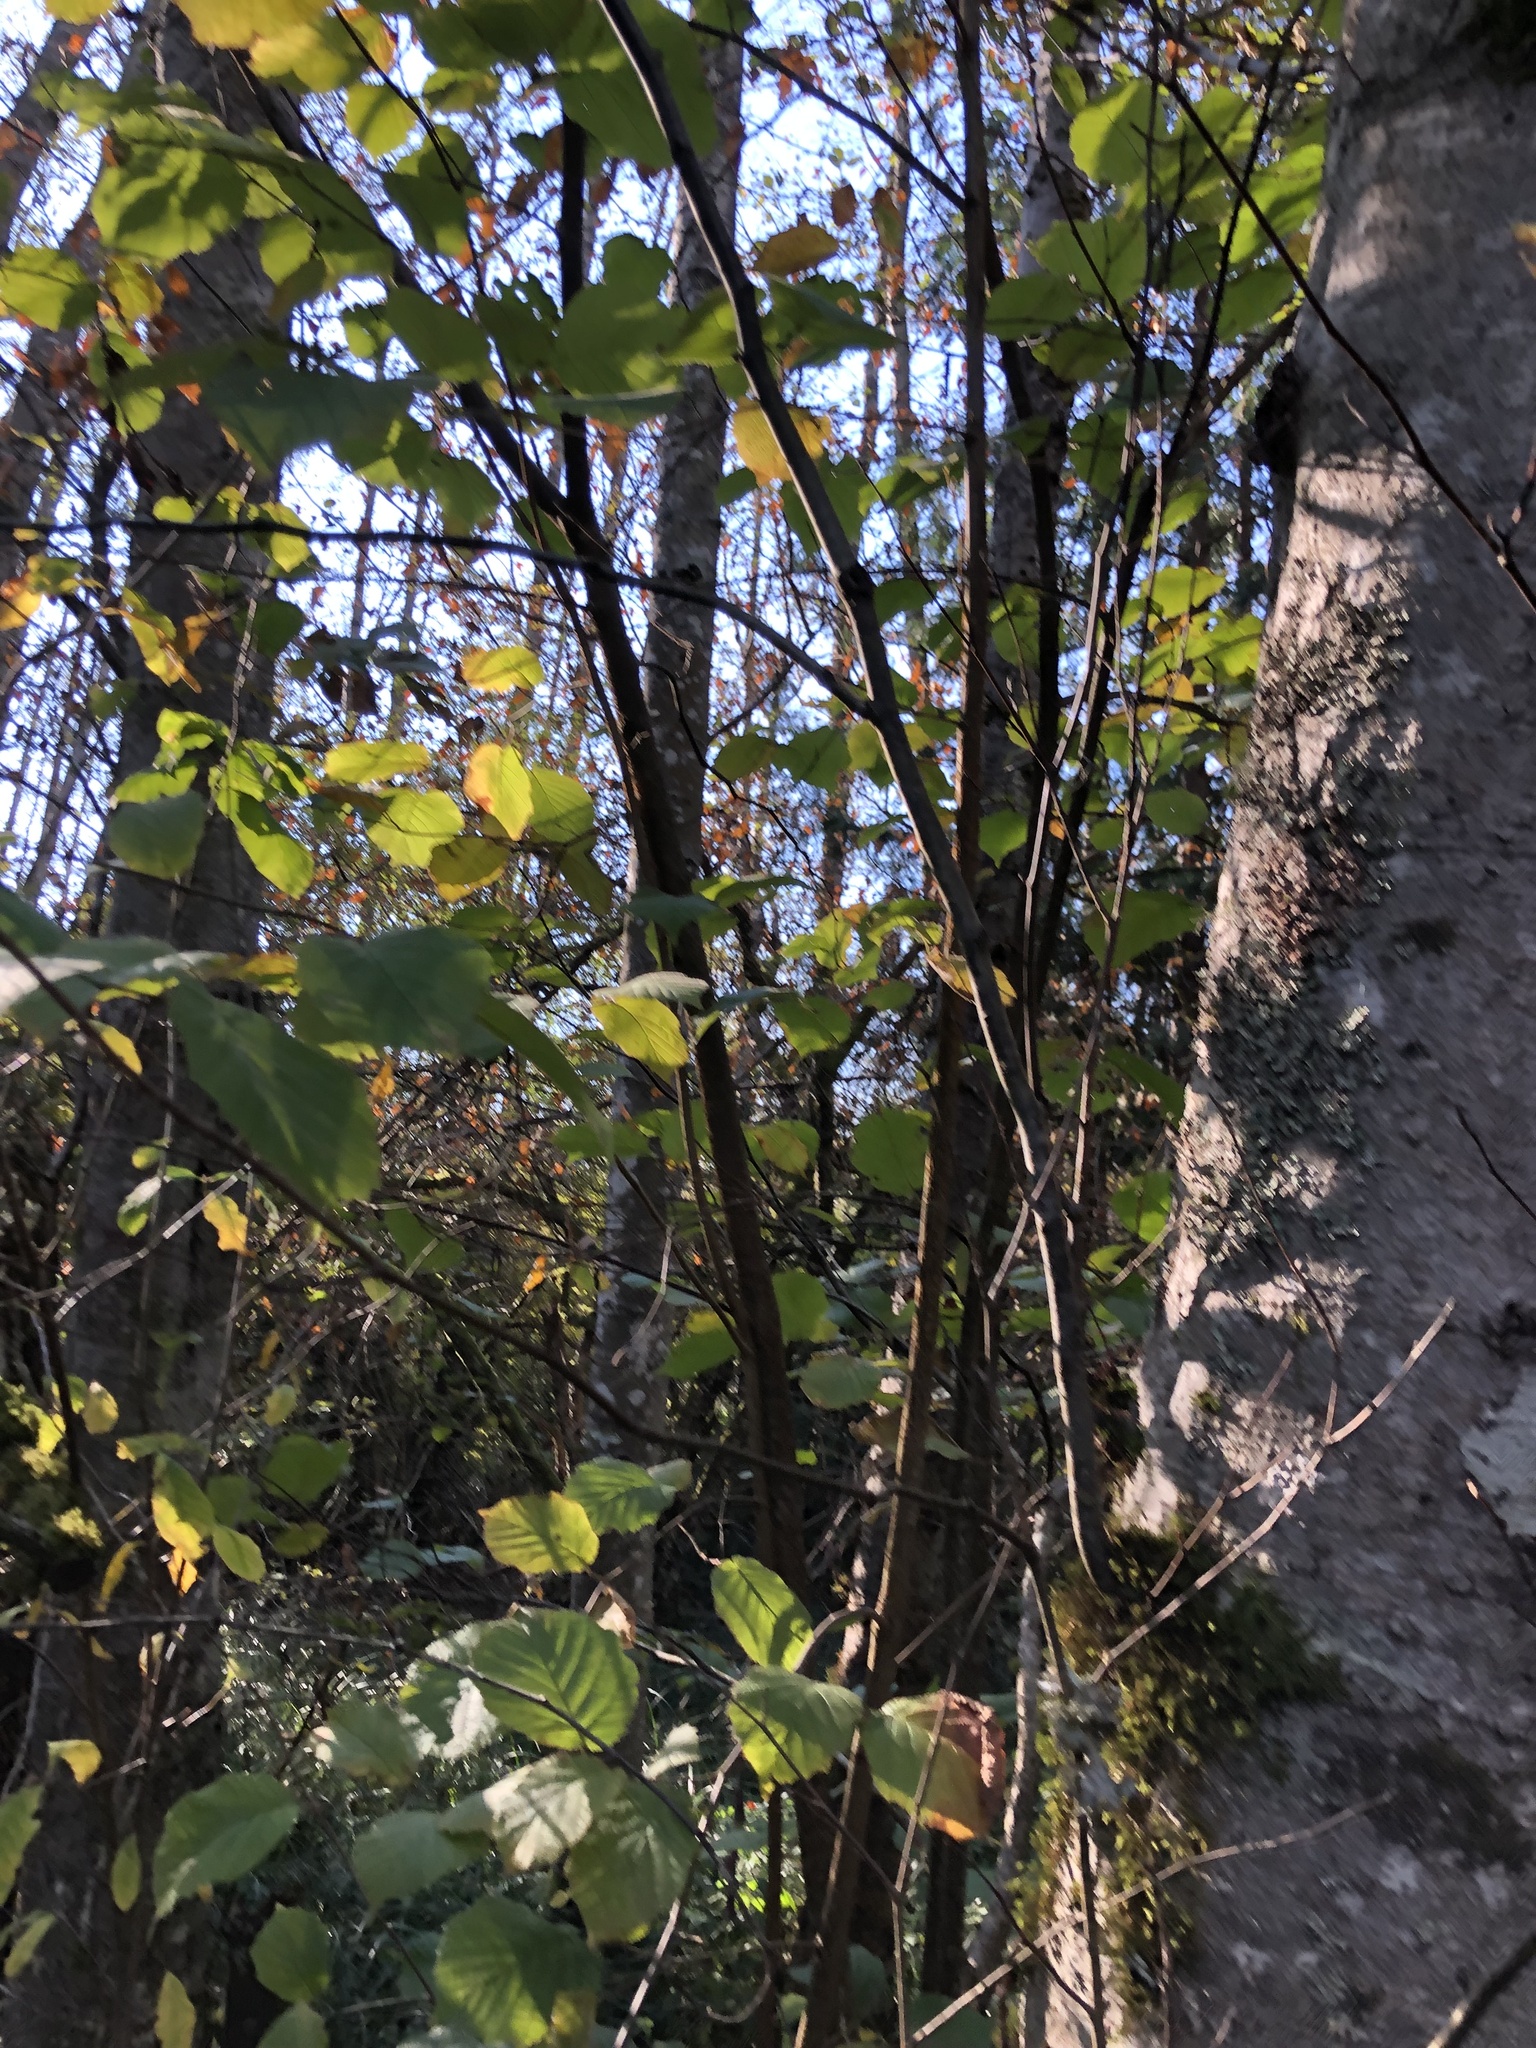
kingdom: Plantae
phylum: Tracheophyta
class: Magnoliopsida
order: Fagales
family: Betulaceae
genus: Corylus
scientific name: Corylus cornuta
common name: Beaked hazel
